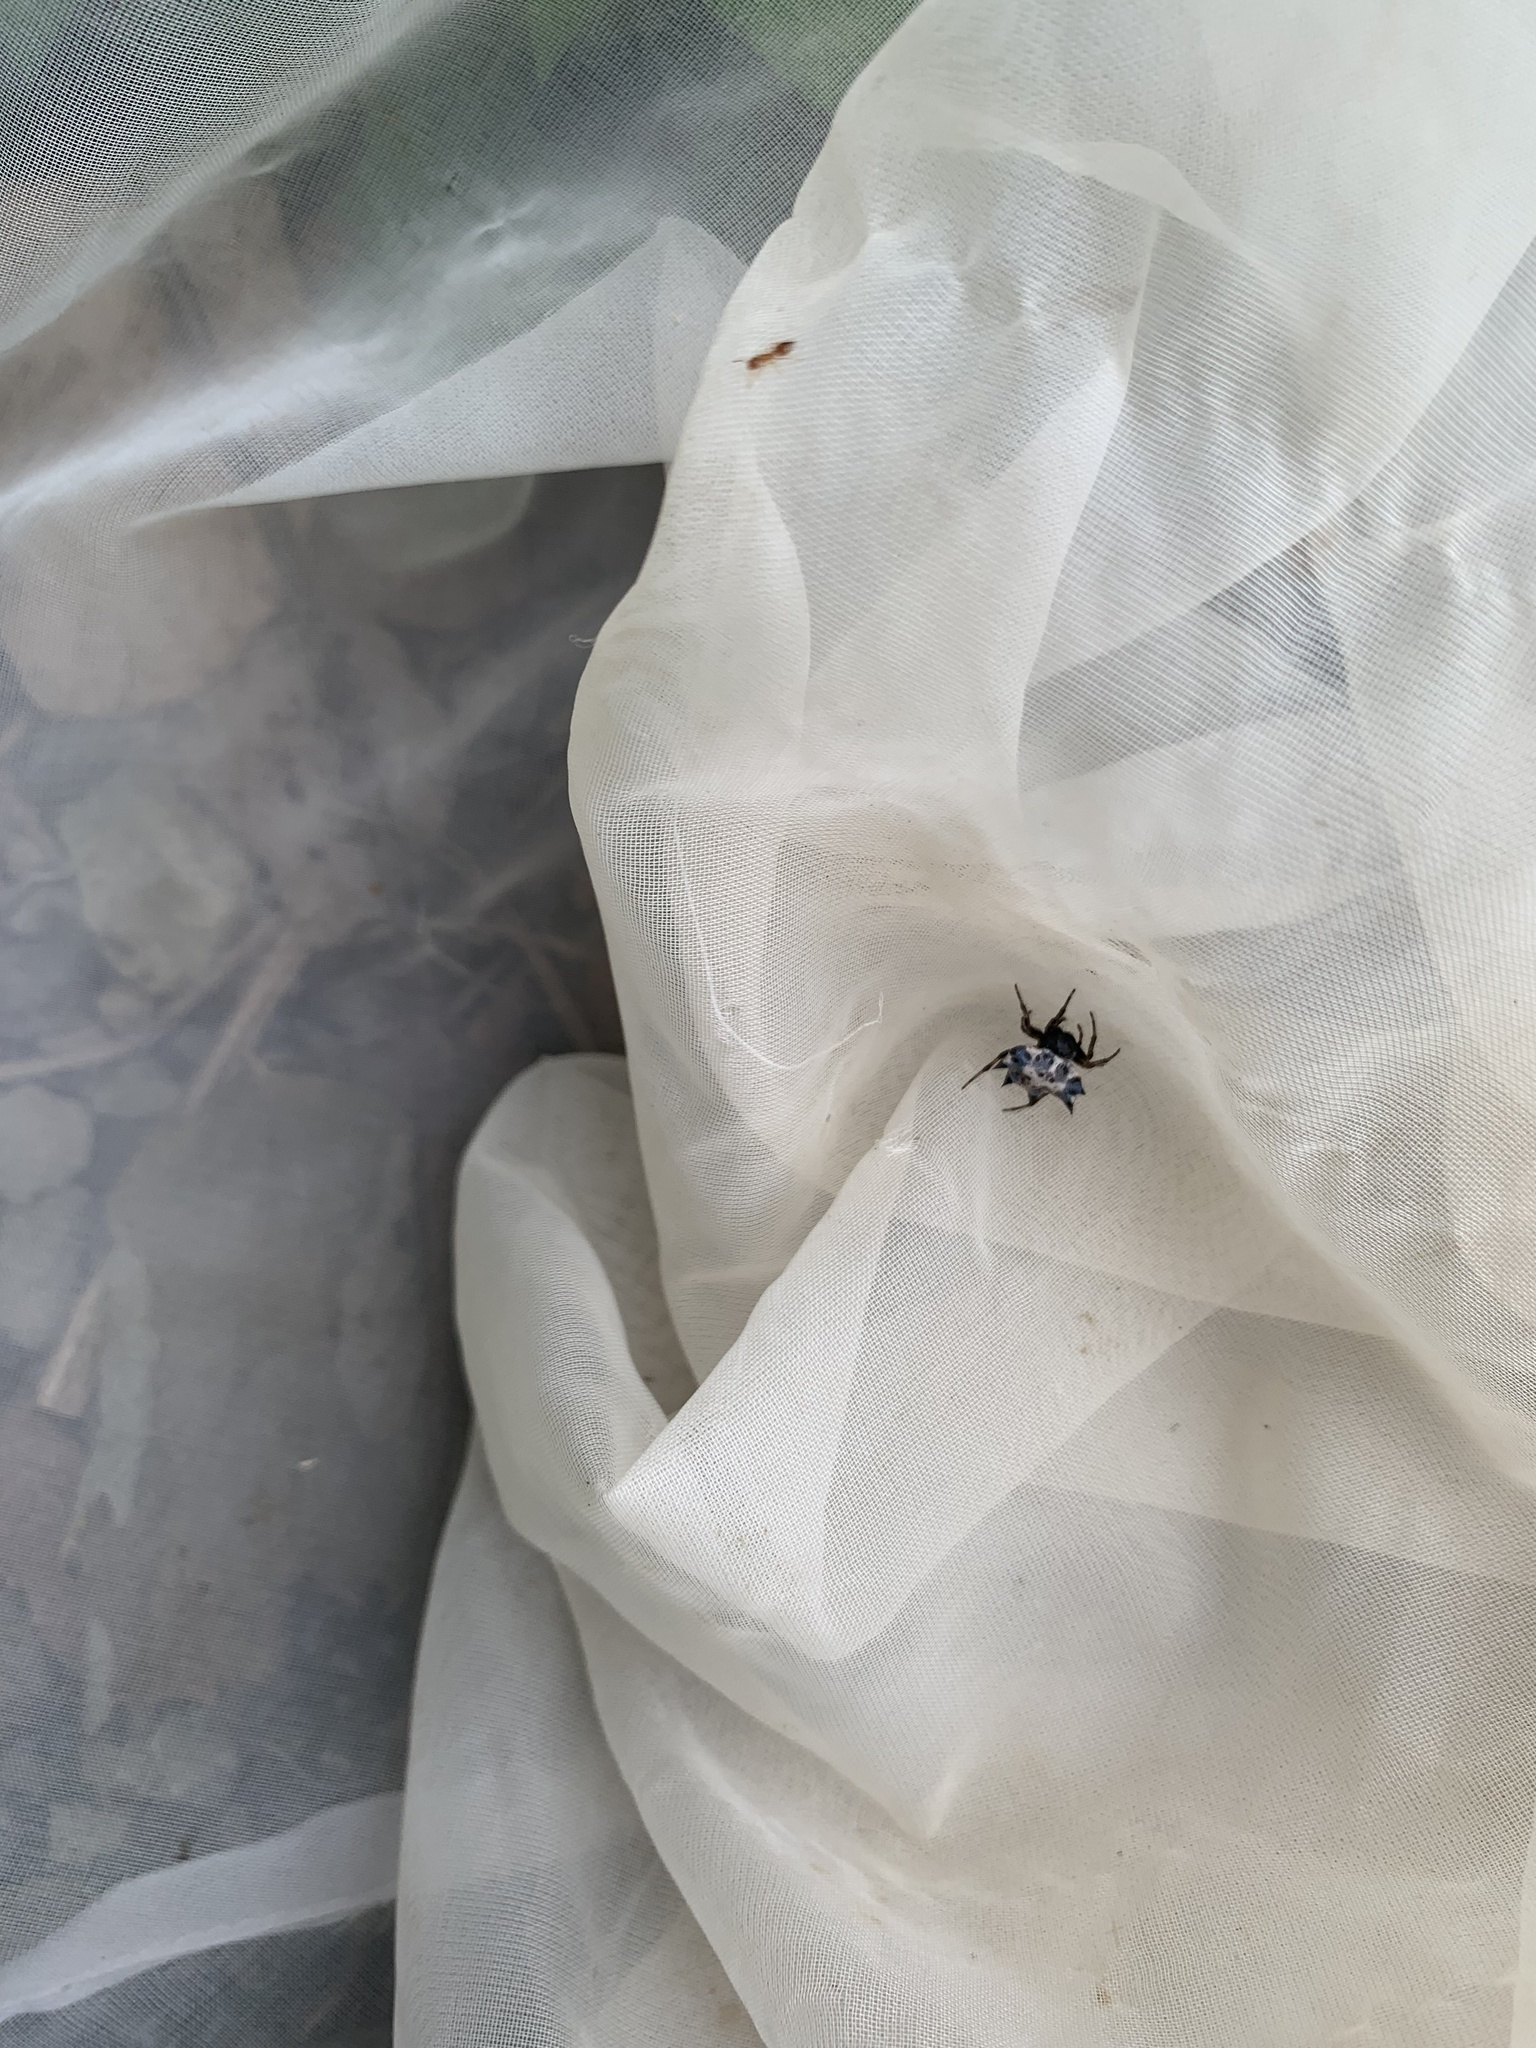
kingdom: Animalia
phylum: Arthropoda
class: Arachnida
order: Araneae
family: Araneidae
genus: Gasteracantha
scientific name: Gasteracantha kuhli
